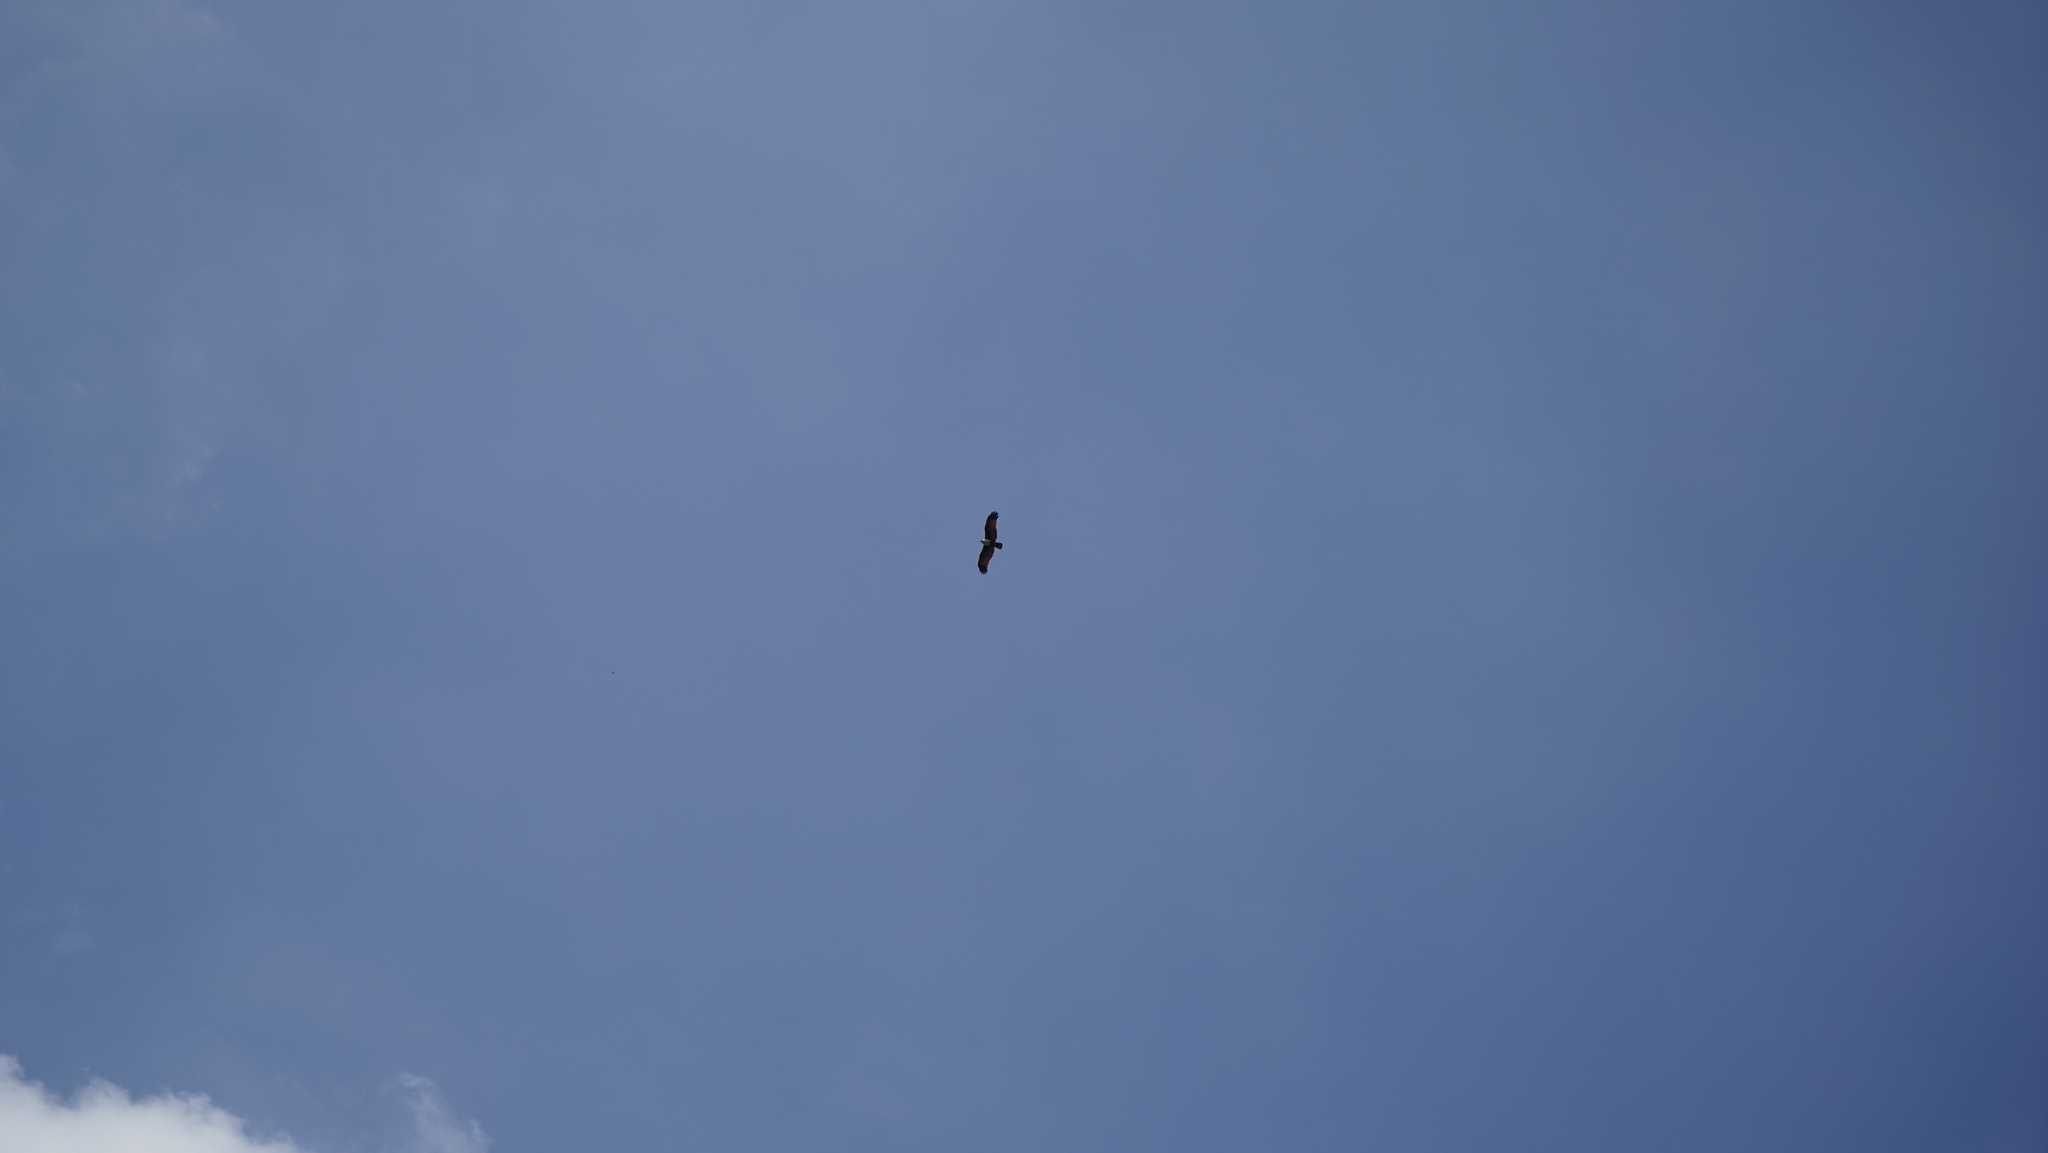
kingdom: Animalia
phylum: Chordata
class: Aves
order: Accipitriformes
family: Accipitridae
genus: Haliastur
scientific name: Haliastur indus
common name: Brahminy kite
